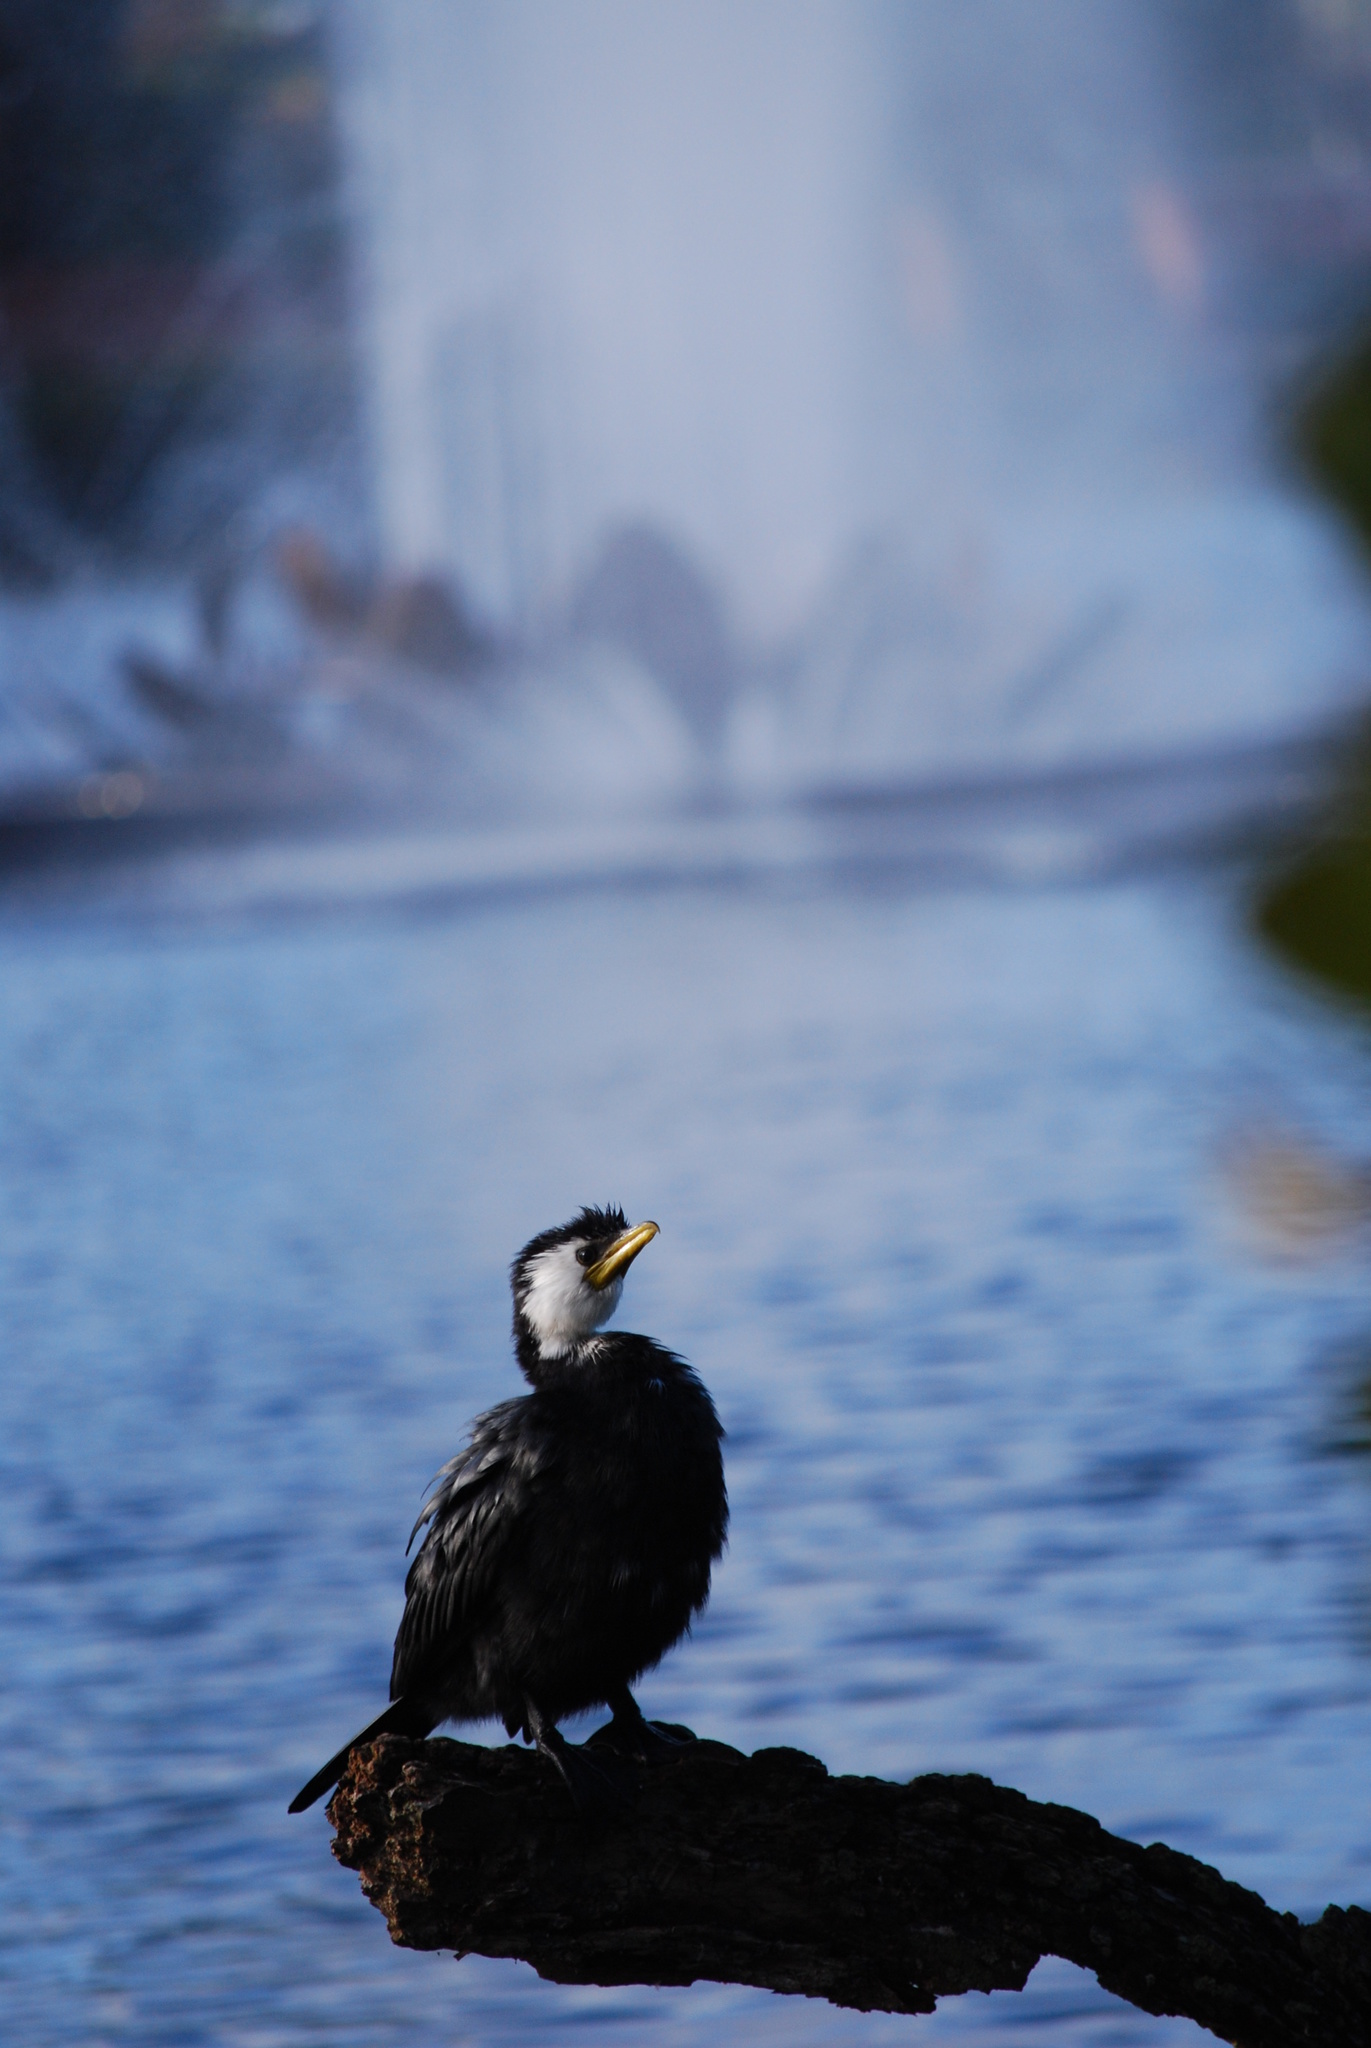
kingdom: Animalia
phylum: Chordata
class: Aves
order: Suliformes
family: Phalacrocoracidae
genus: Microcarbo
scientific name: Microcarbo melanoleucos
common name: Little pied cormorant
